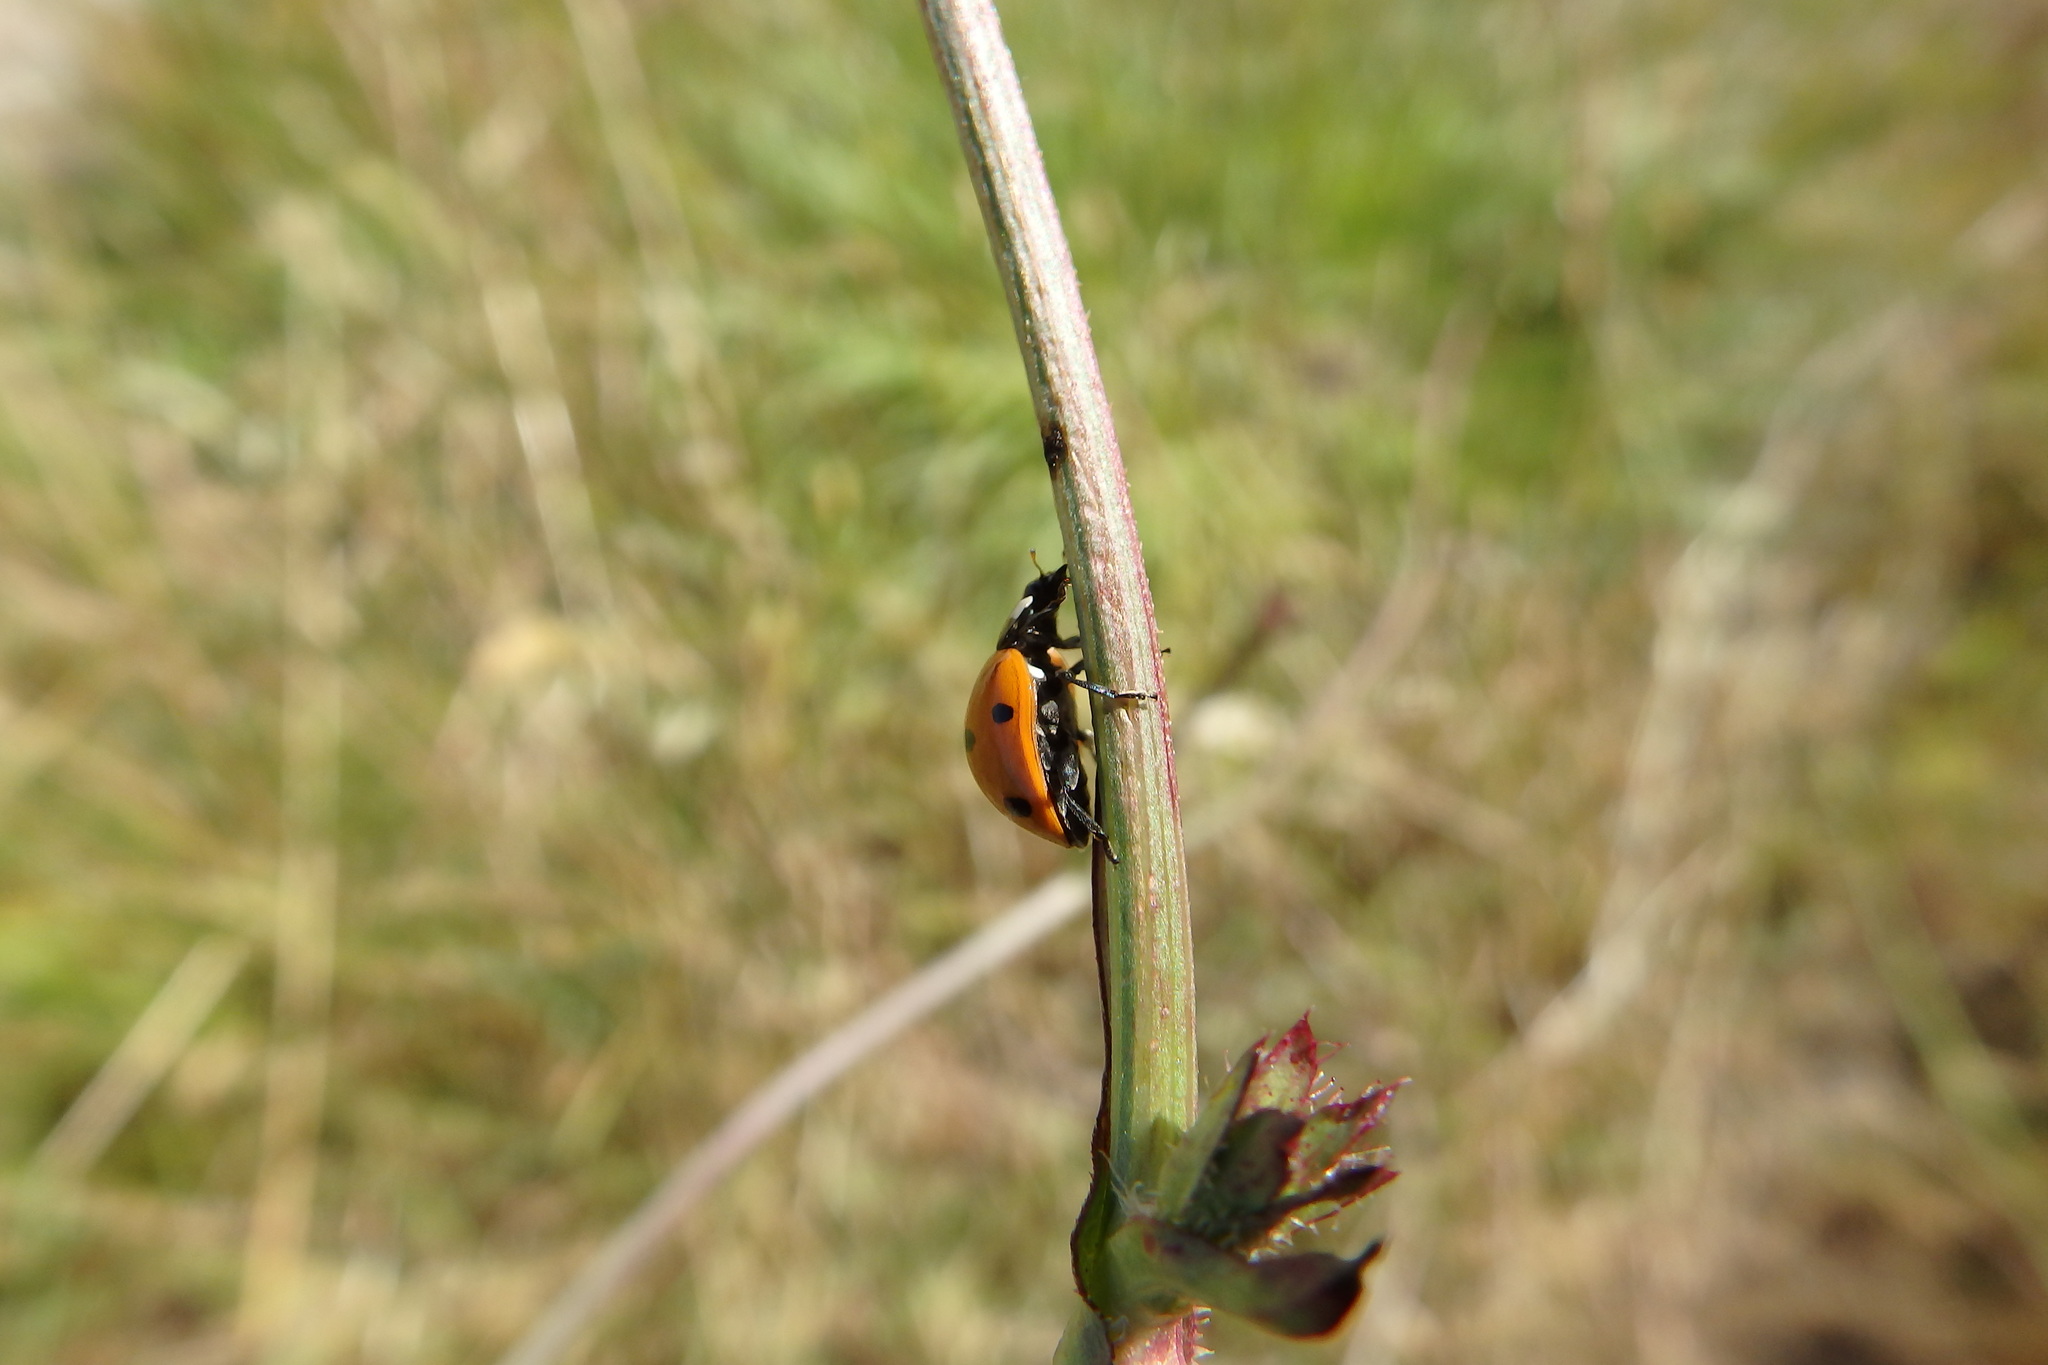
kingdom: Animalia
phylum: Arthropoda
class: Insecta
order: Coleoptera
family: Coccinellidae
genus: Coccinella
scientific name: Coccinella septempunctata
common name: Sevenspotted lady beetle
